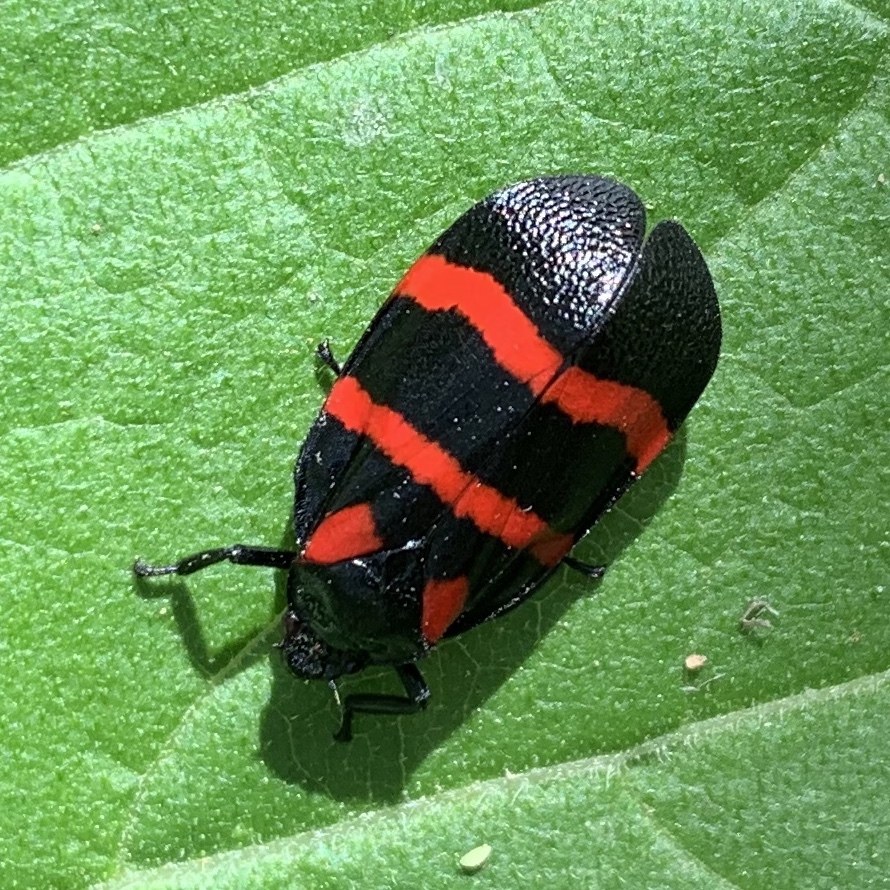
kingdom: Animalia
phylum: Arthropoda
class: Insecta
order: Hemiptera
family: Cercopidae
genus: Huaina
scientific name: Huaina inca
